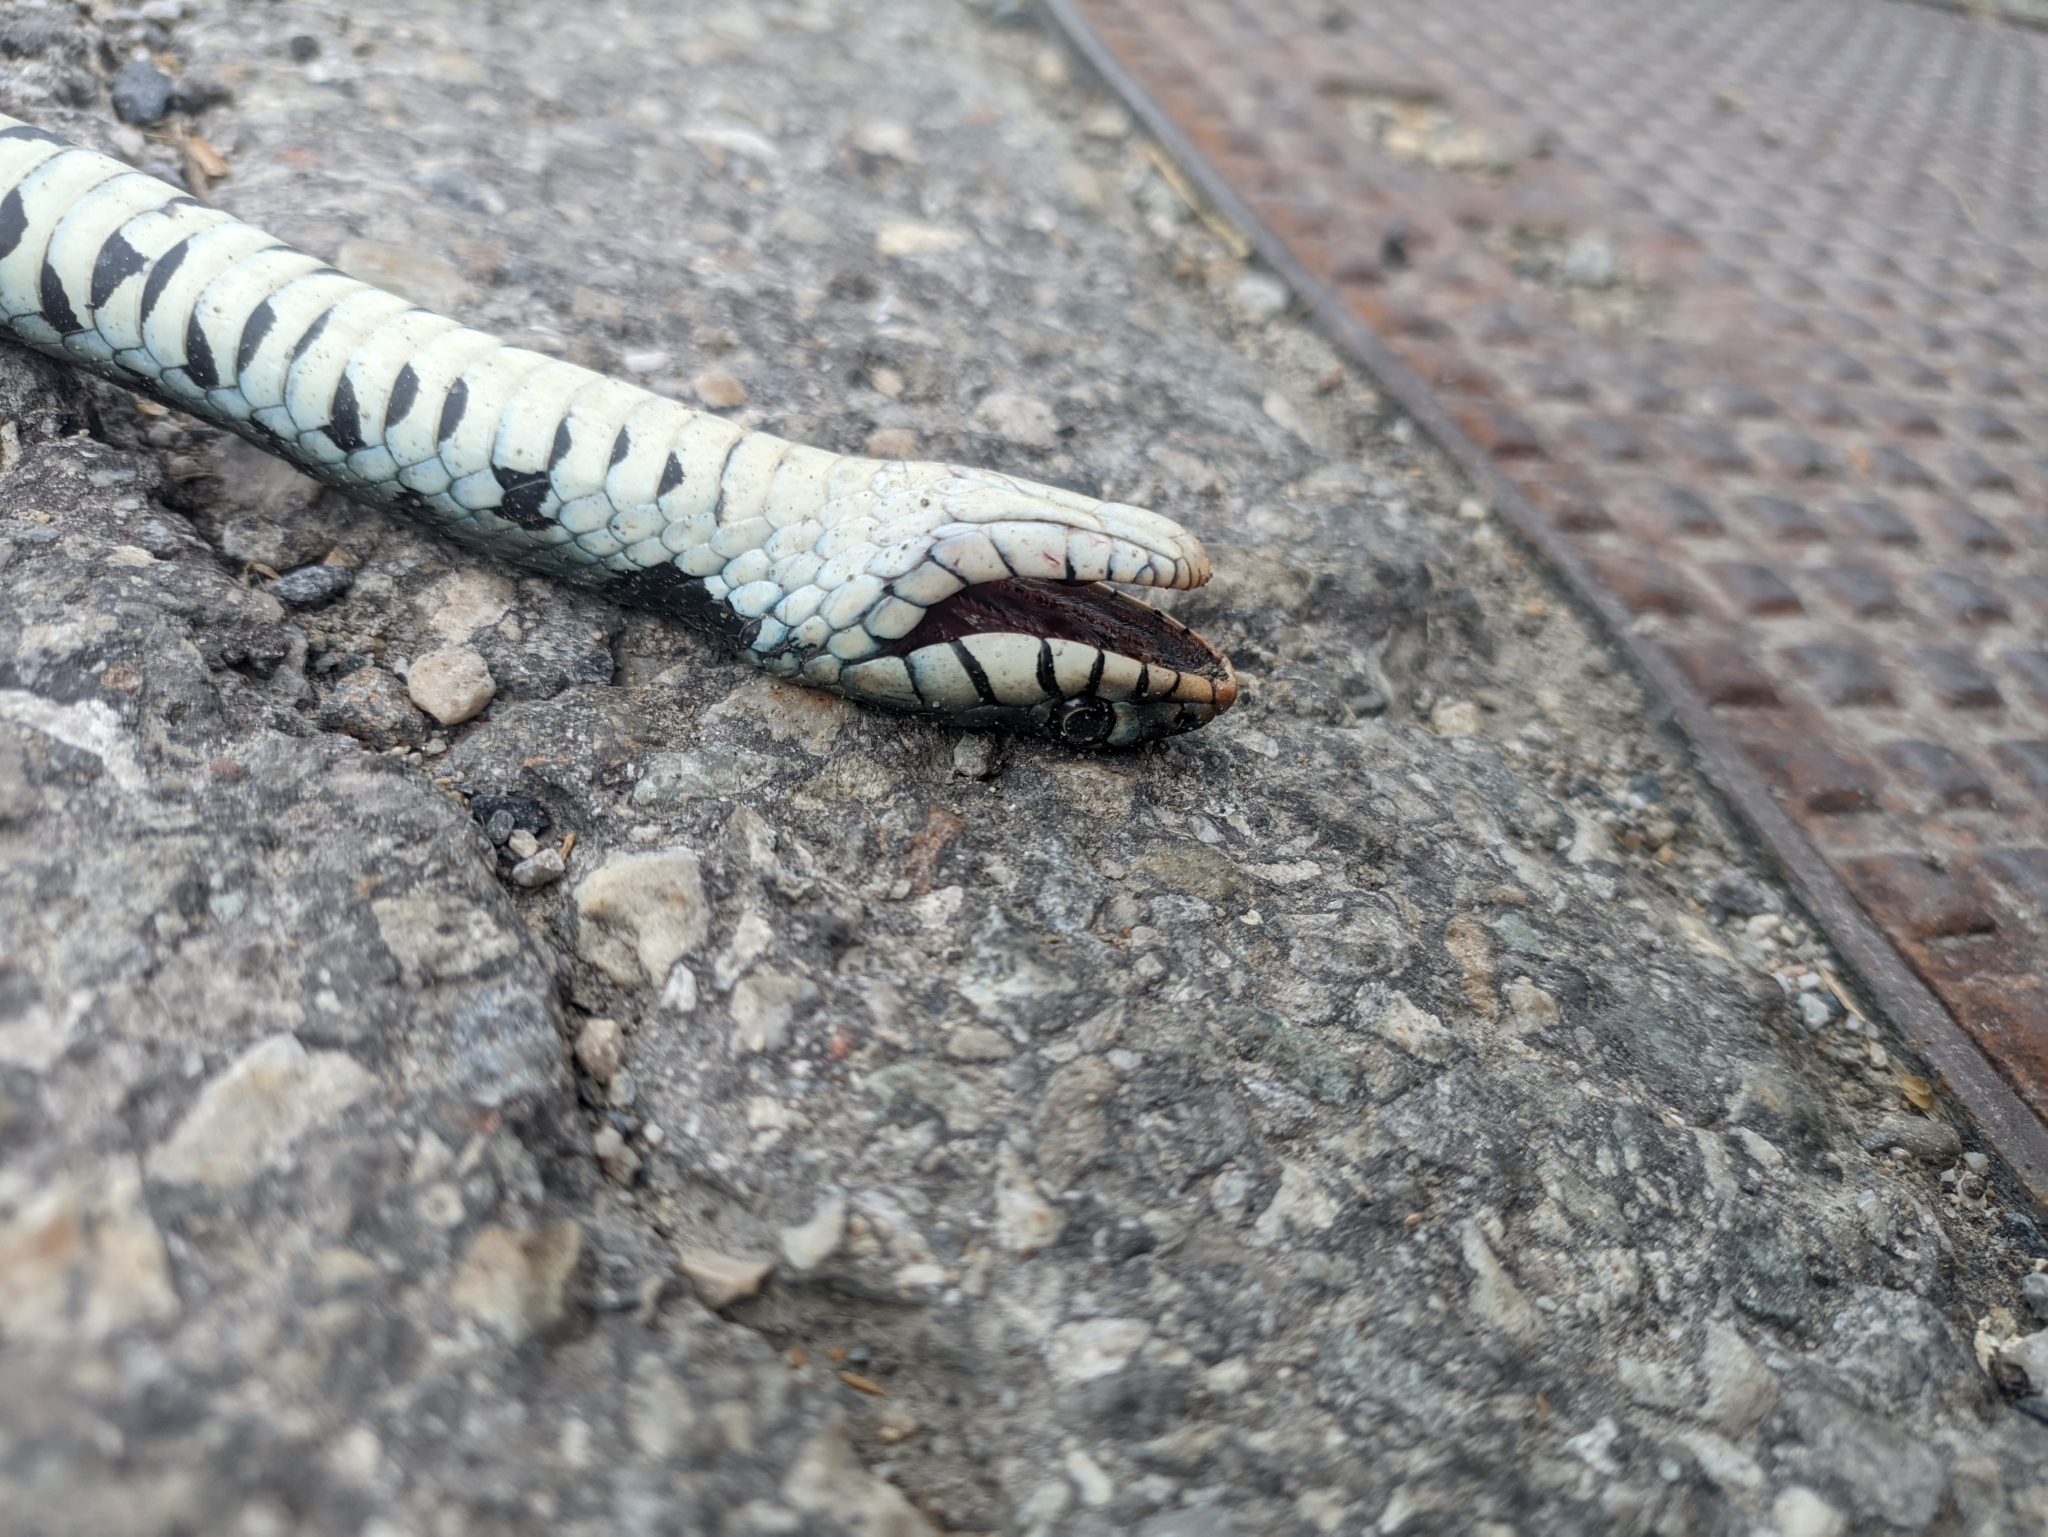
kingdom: Animalia
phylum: Chordata
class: Squamata
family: Colubridae
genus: Natrix
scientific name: Natrix helvetica
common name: Banded grass snake
